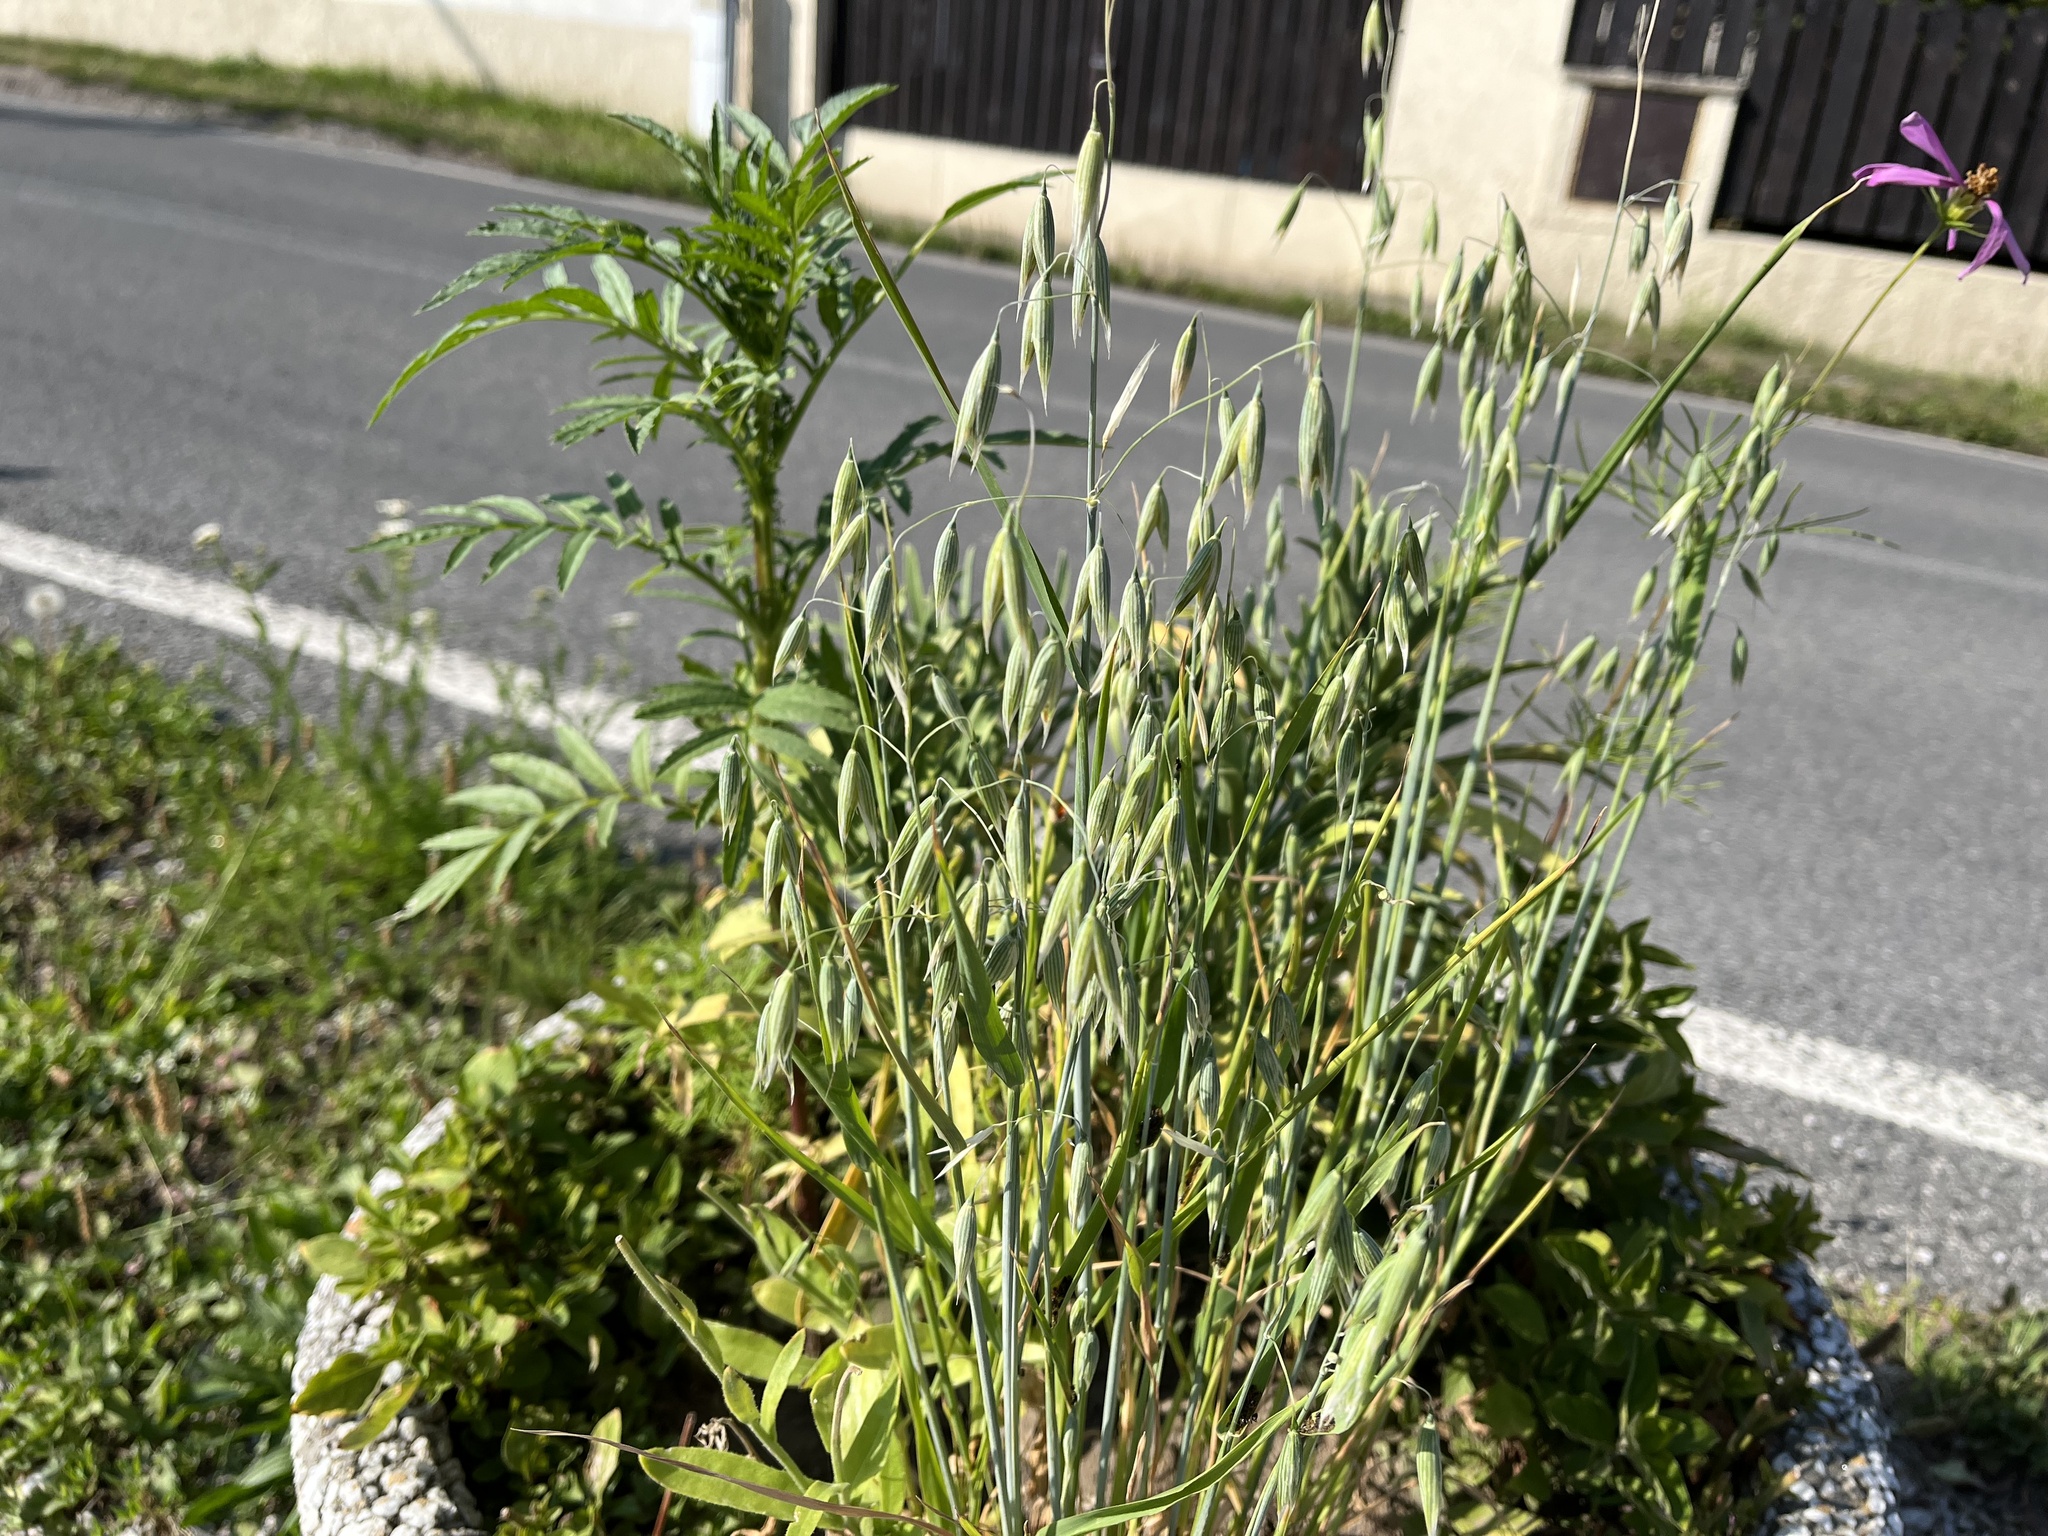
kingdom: Plantae
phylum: Tracheophyta
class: Liliopsida
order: Poales
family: Poaceae
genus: Avena
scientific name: Avena sativa
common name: Oat
